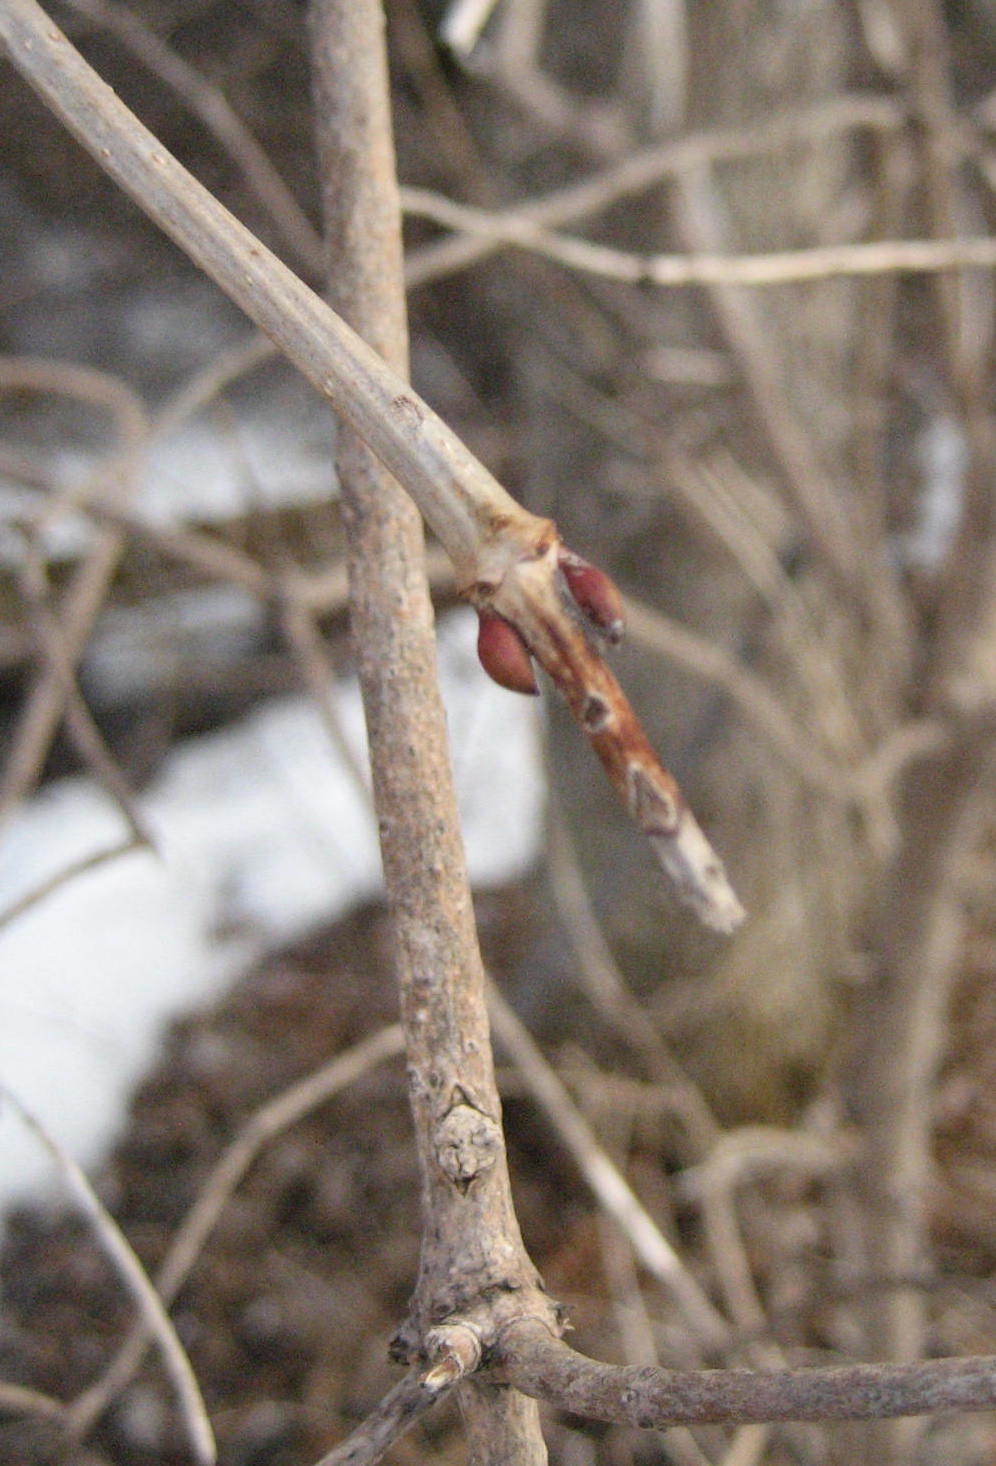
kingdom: Plantae
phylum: Tracheophyta
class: Magnoliopsida
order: Dipsacales
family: Viburnaceae
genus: Viburnum
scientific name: Viburnum opulus
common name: Guelder-rose
